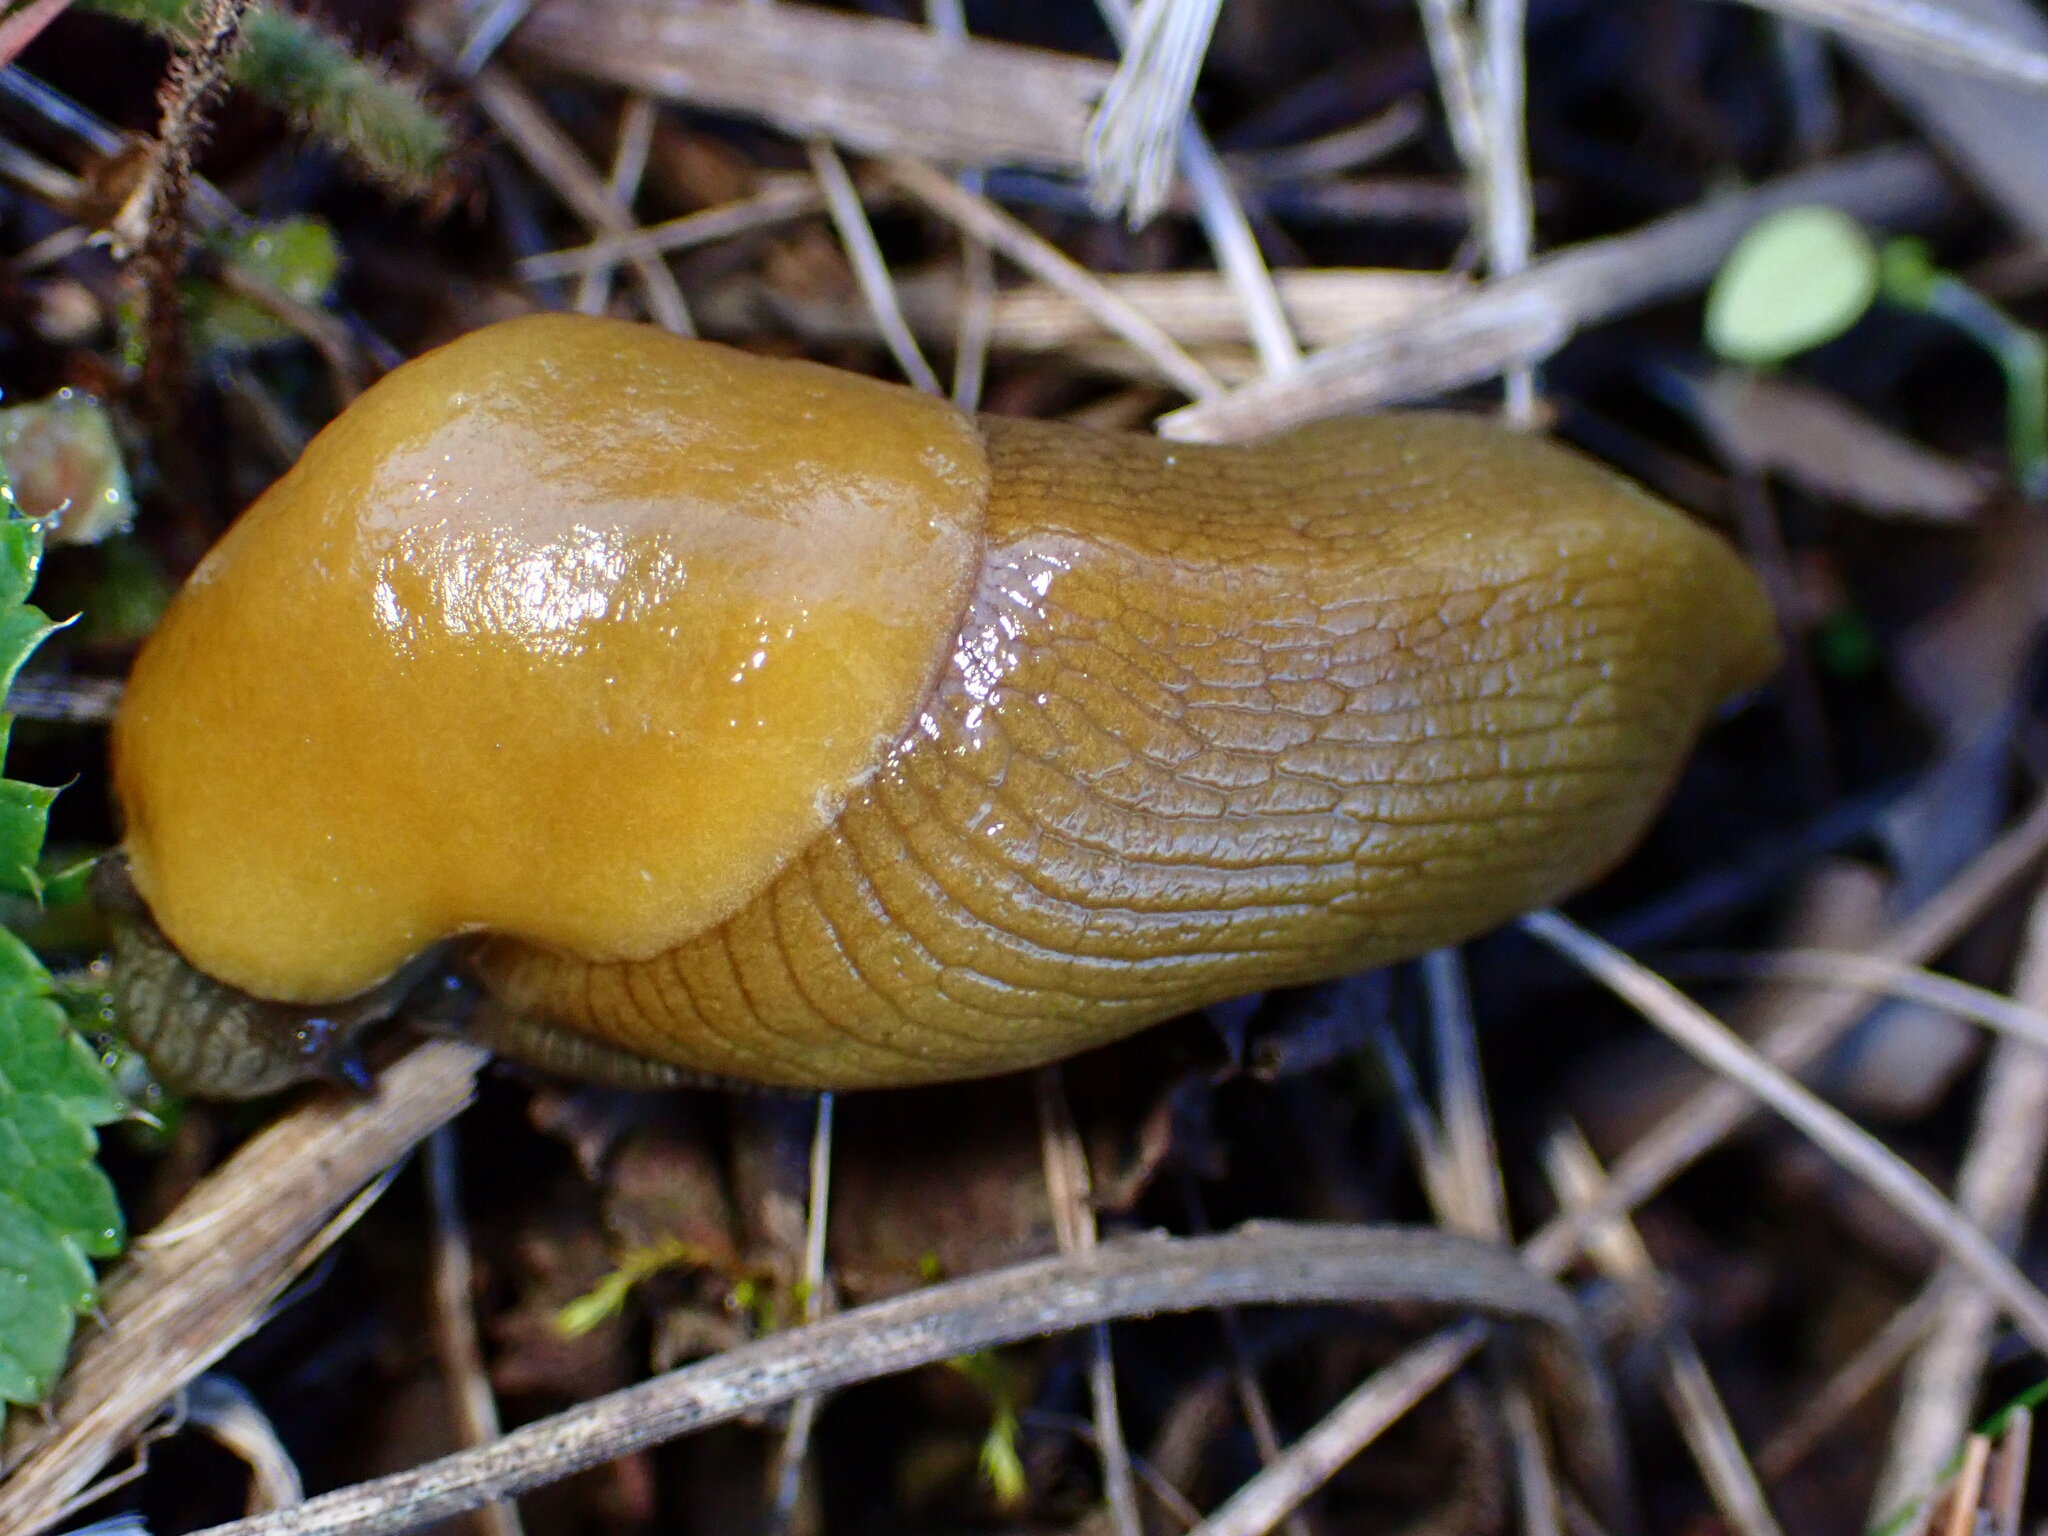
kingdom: Animalia
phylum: Mollusca
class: Gastropoda
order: Stylommatophora
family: Ariolimacidae
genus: Ariolimax
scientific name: Ariolimax brachyphallus
